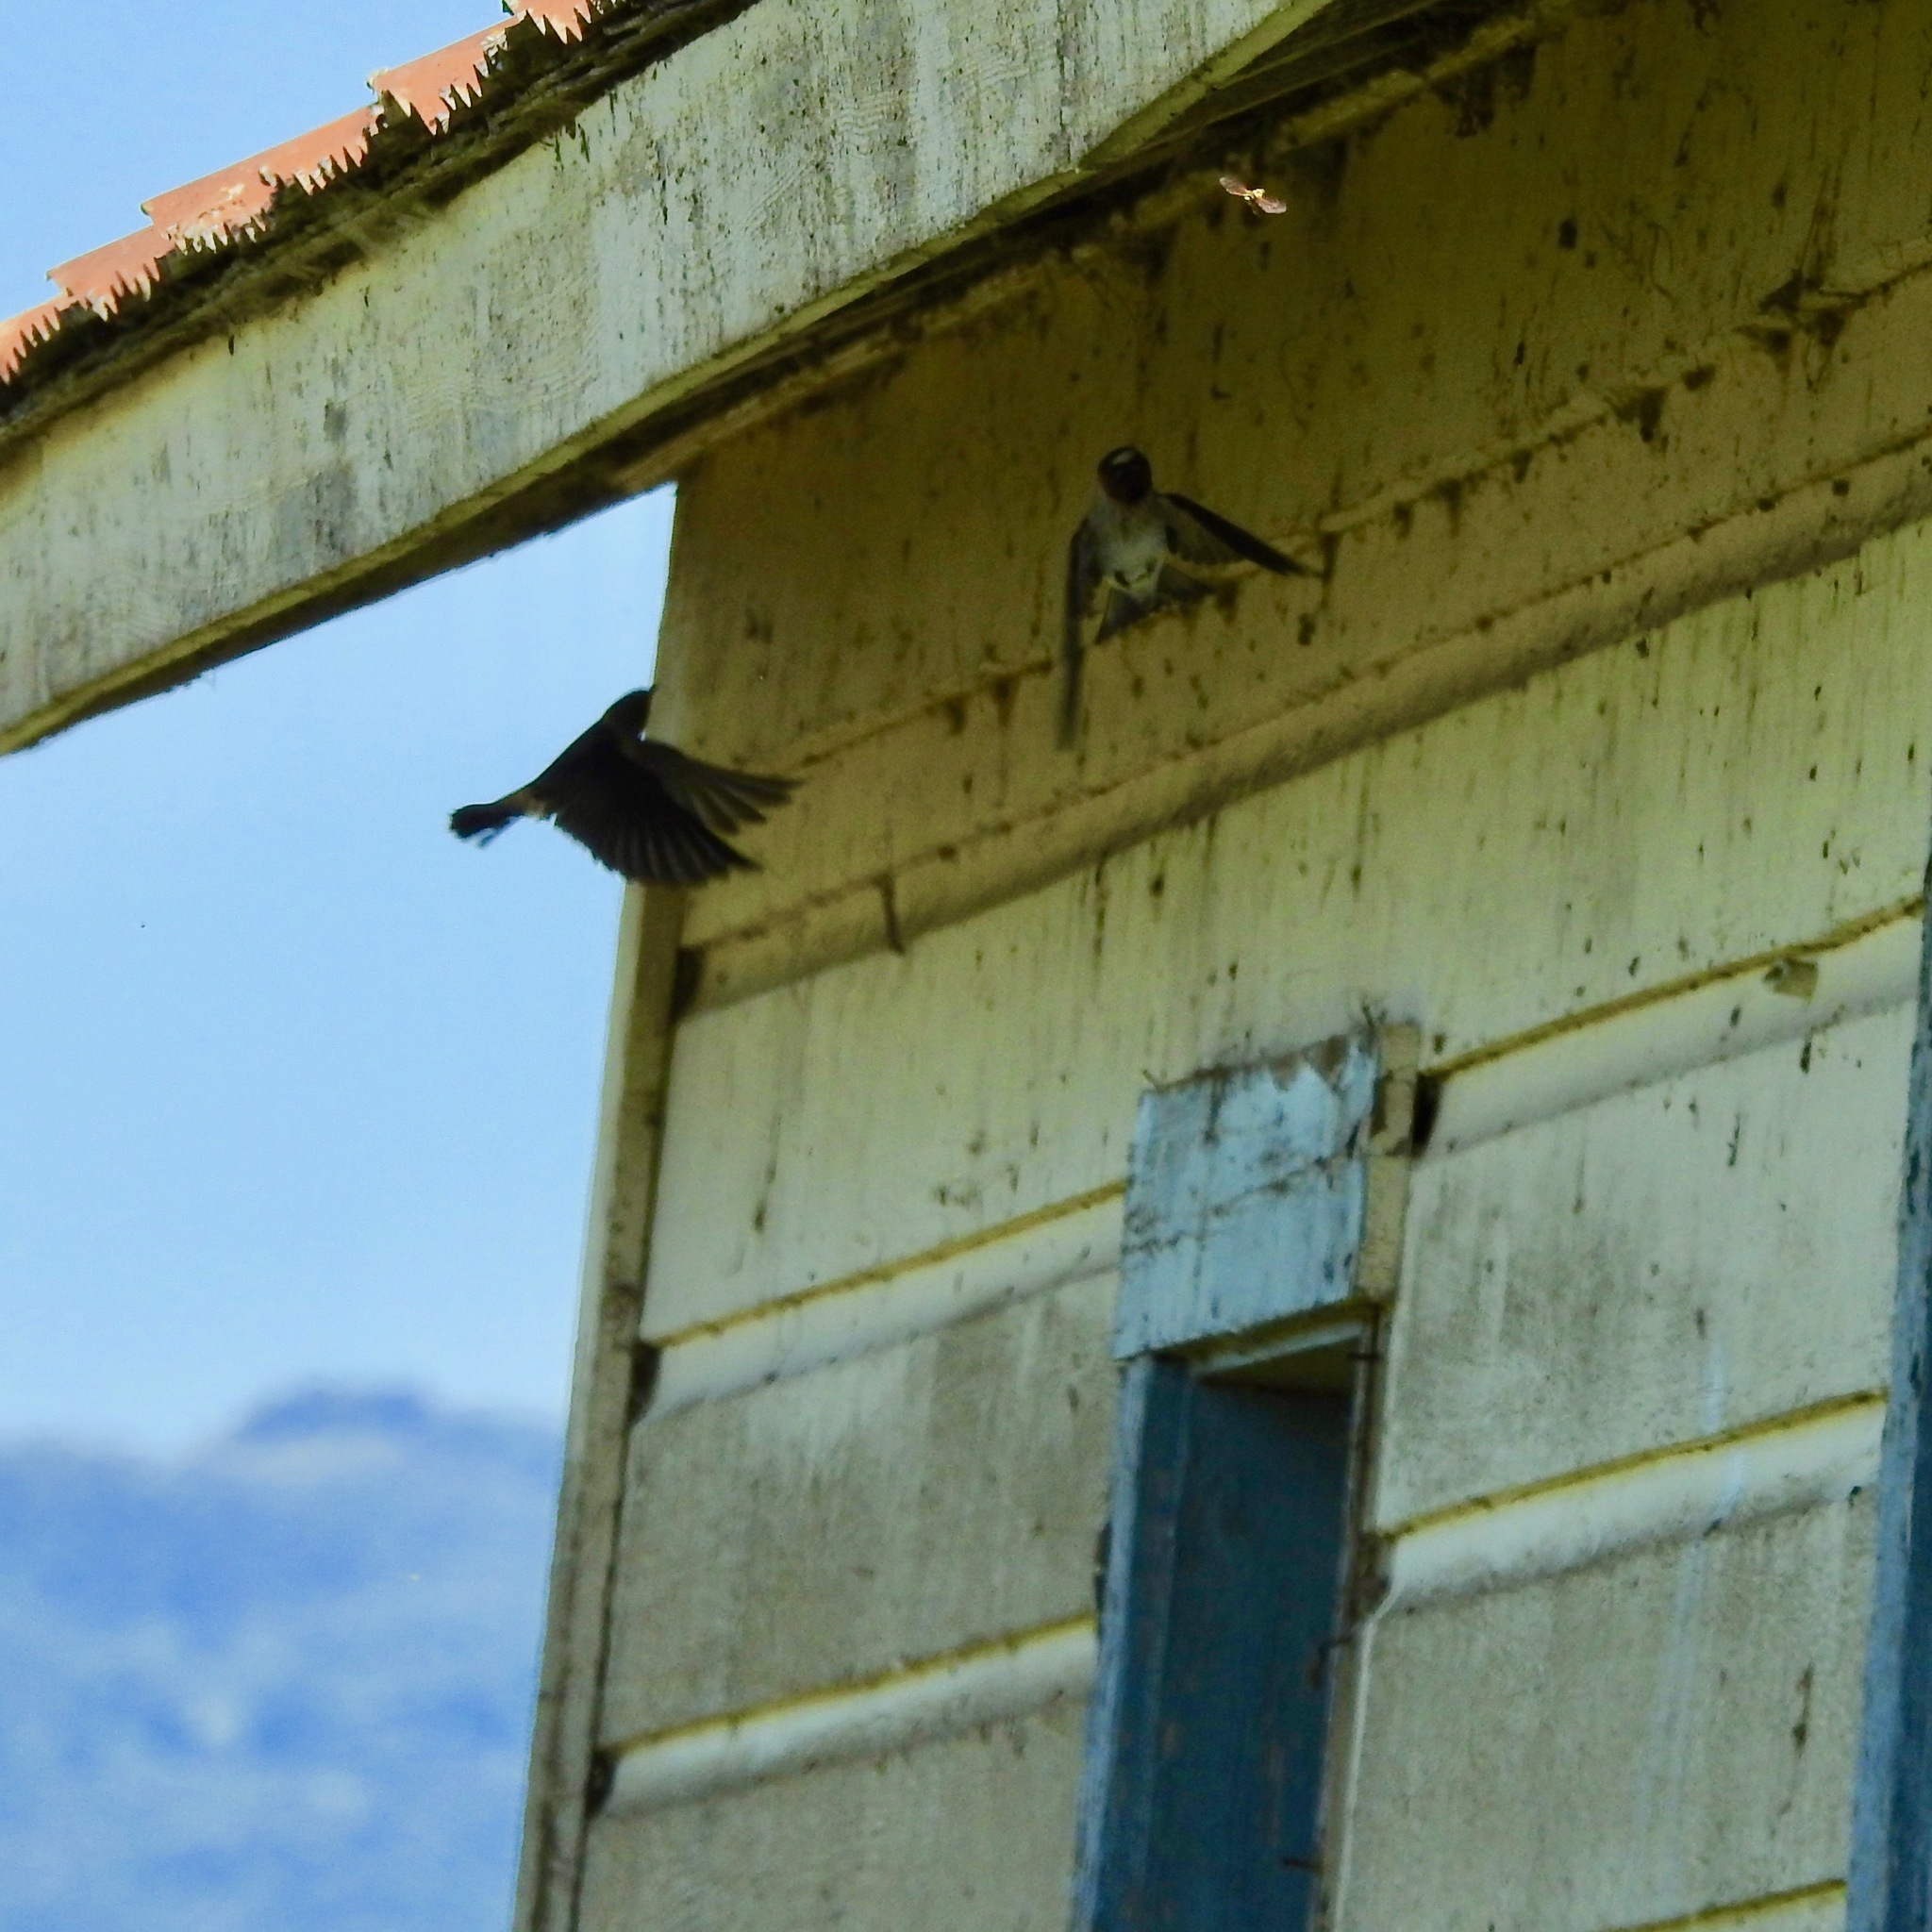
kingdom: Animalia
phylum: Chordata
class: Aves
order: Passeriformes
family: Hirundinidae
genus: Petrochelidon
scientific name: Petrochelidon pyrrhonota
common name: American cliff swallow
